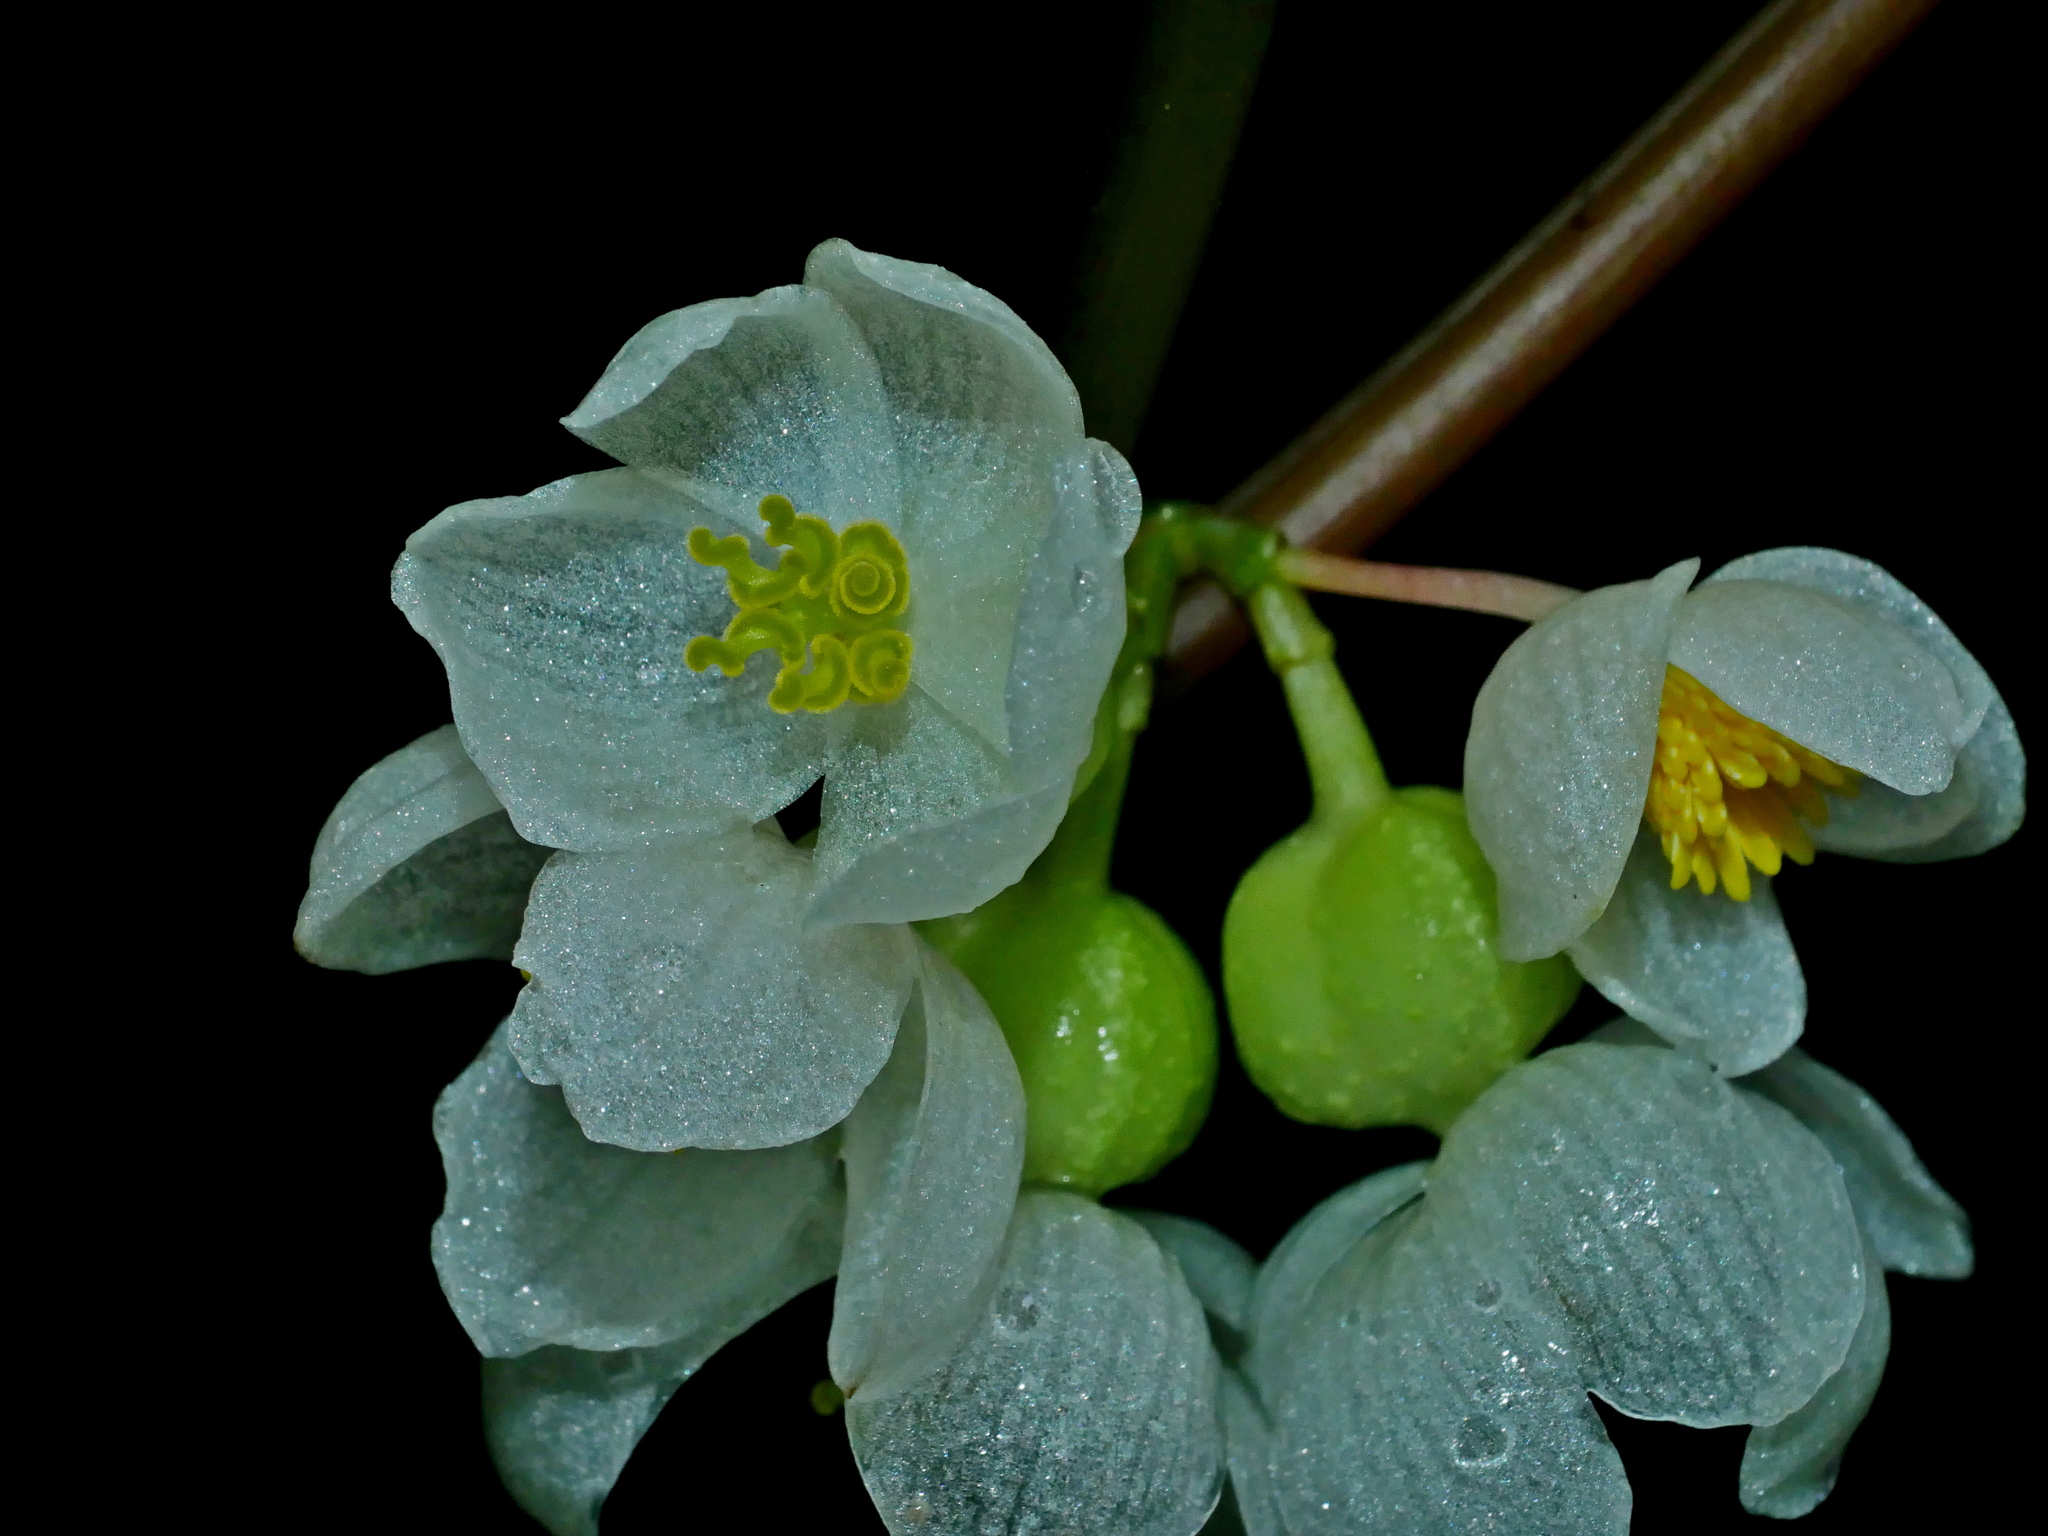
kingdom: Plantae
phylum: Tracheophyta
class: Magnoliopsida
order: Cucurbitales
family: Begoniaceae
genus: Begonia
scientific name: Begonia longifolia
